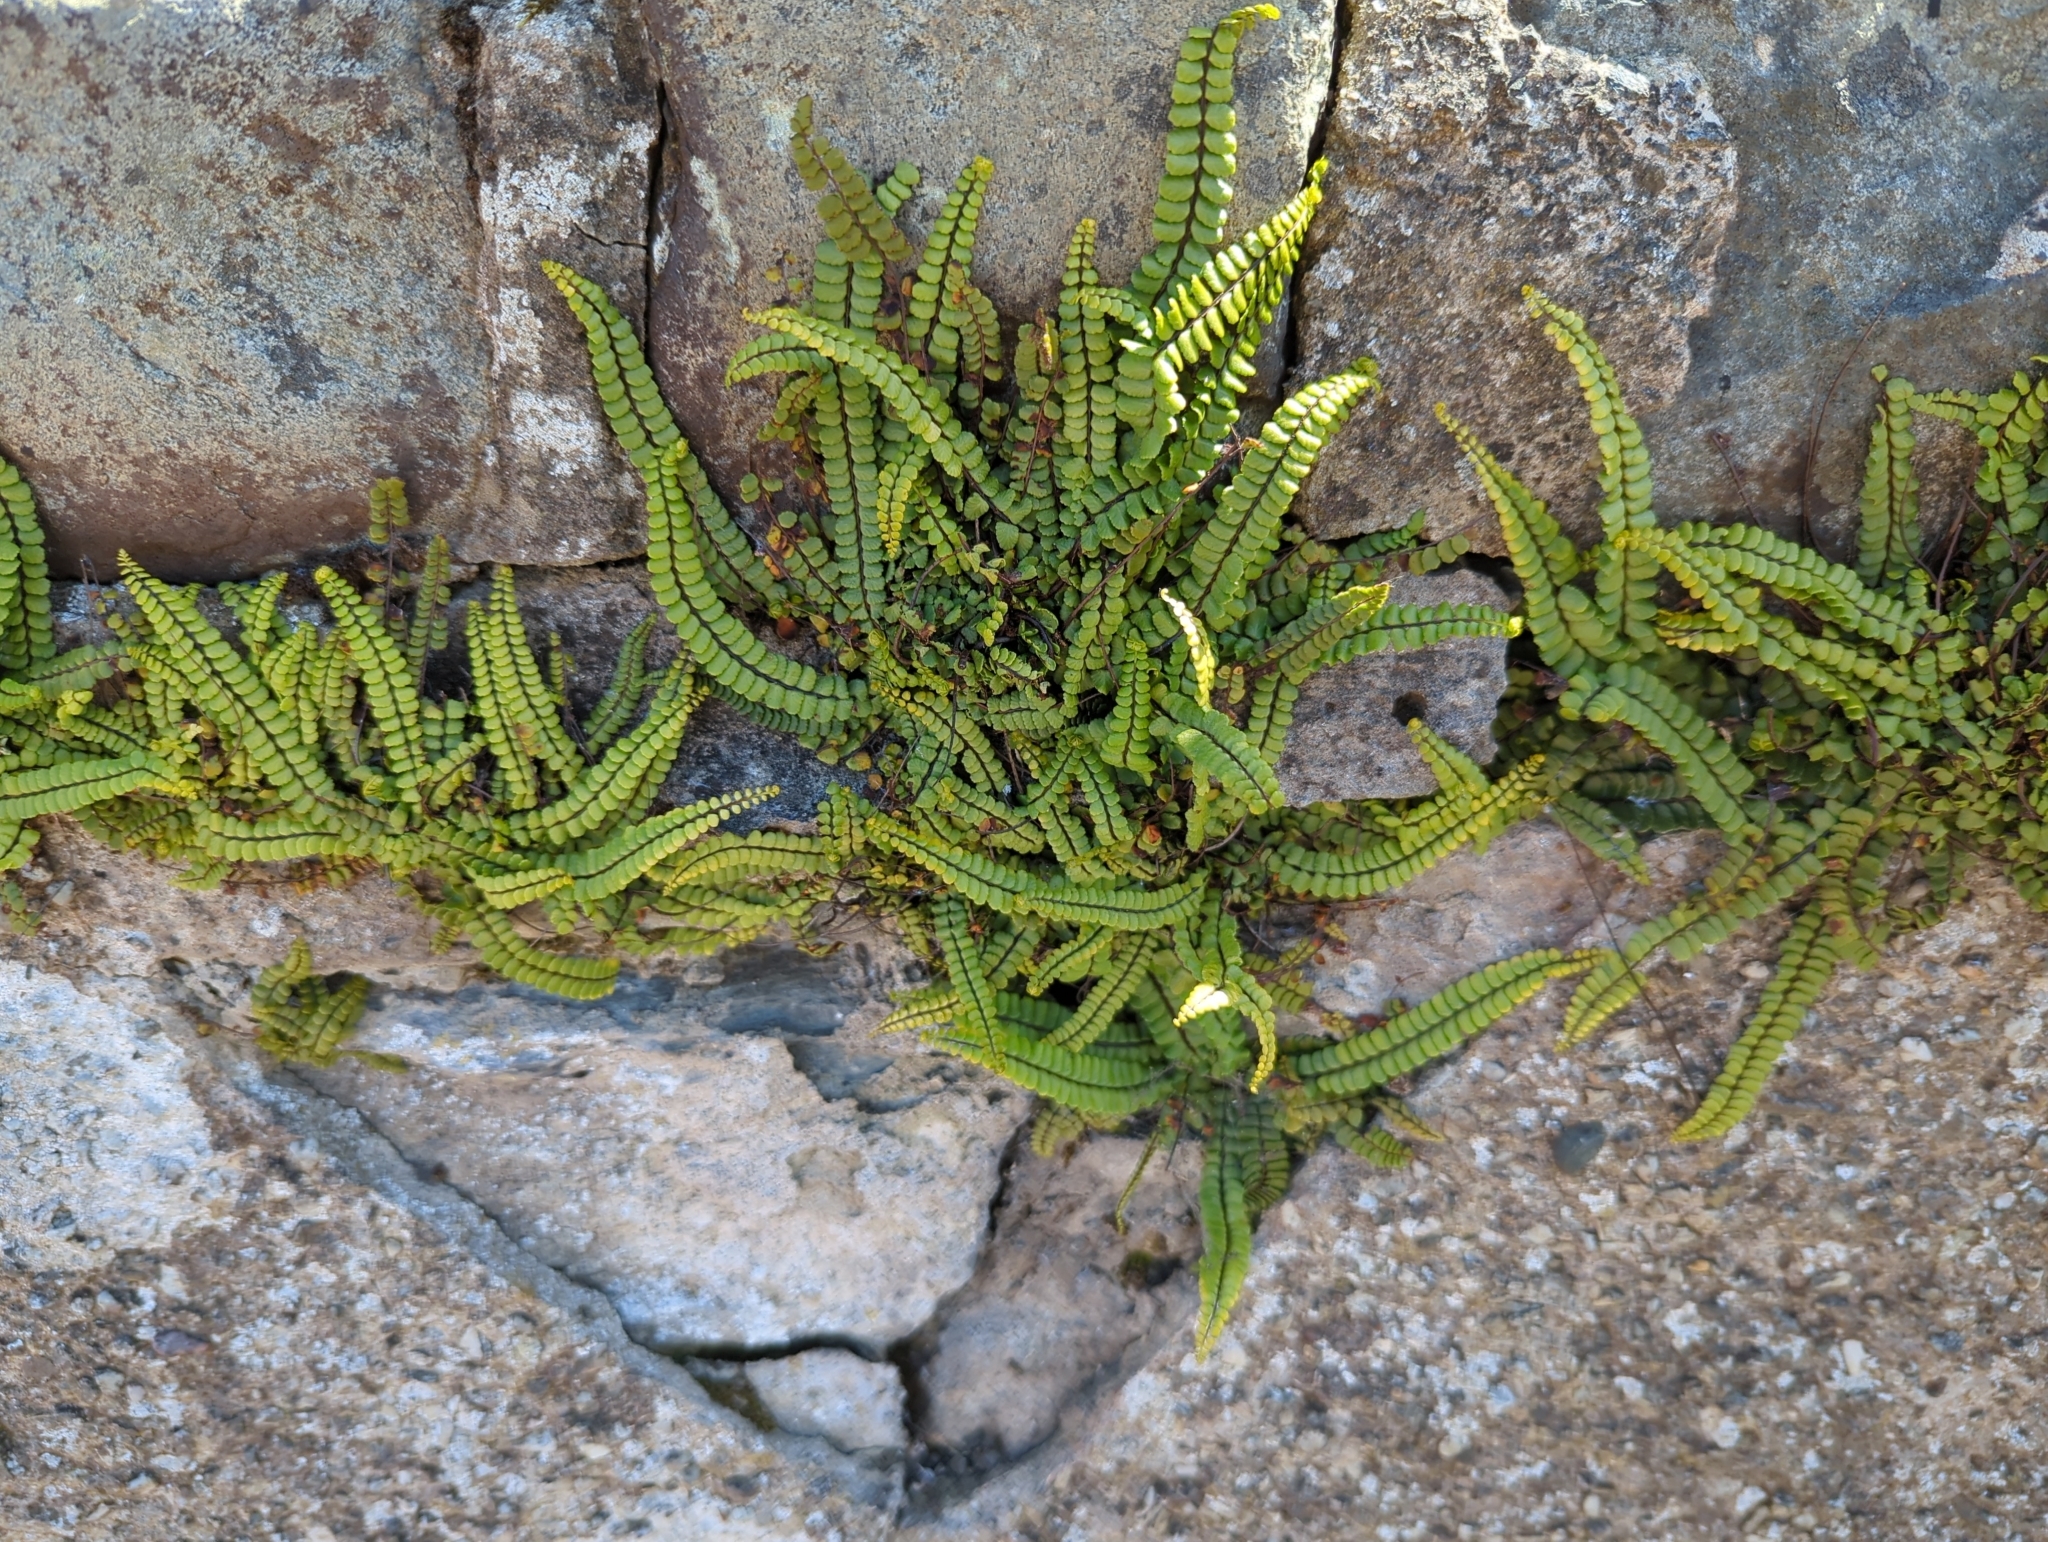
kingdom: Plantae
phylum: Tracheophyta
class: Polypodiopsida
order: Polypodiales
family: Aspleniaceae
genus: Asplenium
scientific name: Asplenium trichomanes
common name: Maidenhair spleenwort
